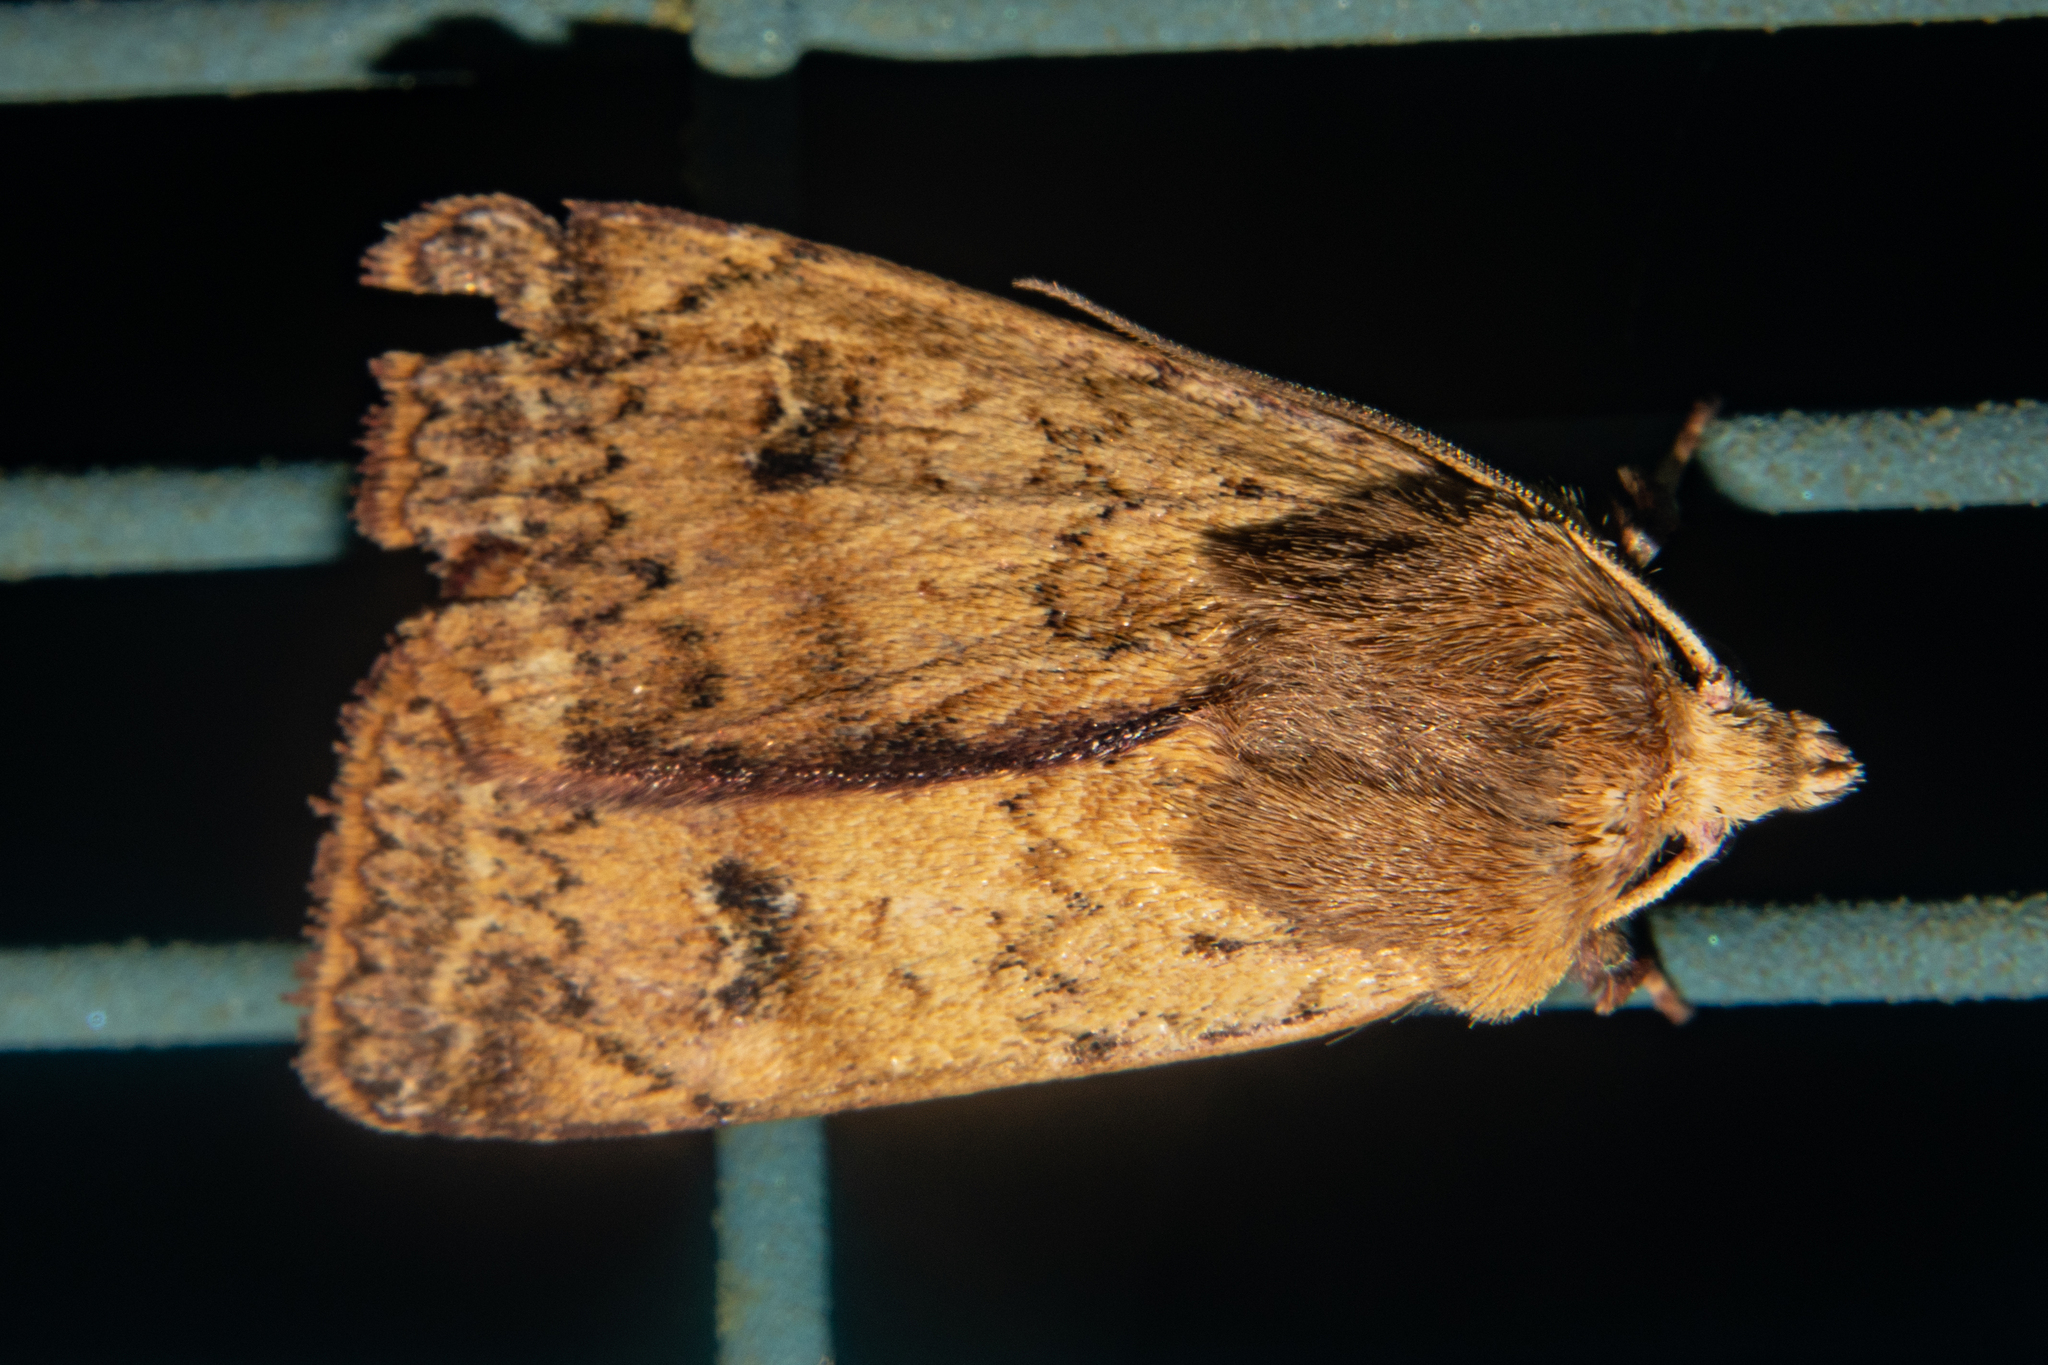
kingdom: Animalia
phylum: Arthropoda
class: Insecta
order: Lepidoptera
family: Noctuidae
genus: Diarsia
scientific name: Diarsia intermixta
